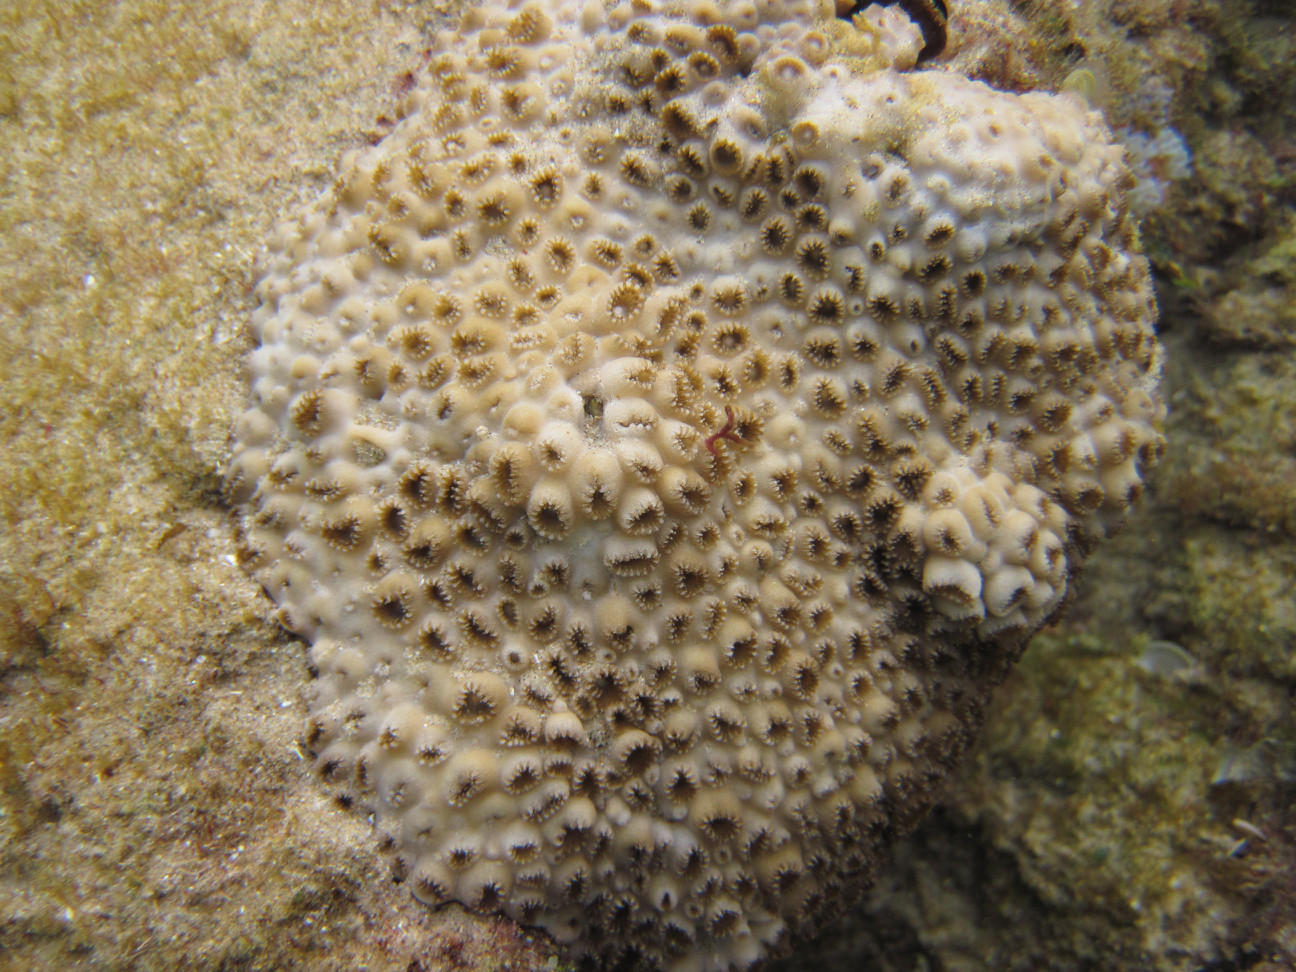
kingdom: Animalia
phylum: Cnidaria
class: Anthozoa
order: Zoantharia
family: Sphenopidae
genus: Palythoa
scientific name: Palythoa tuberculosa
